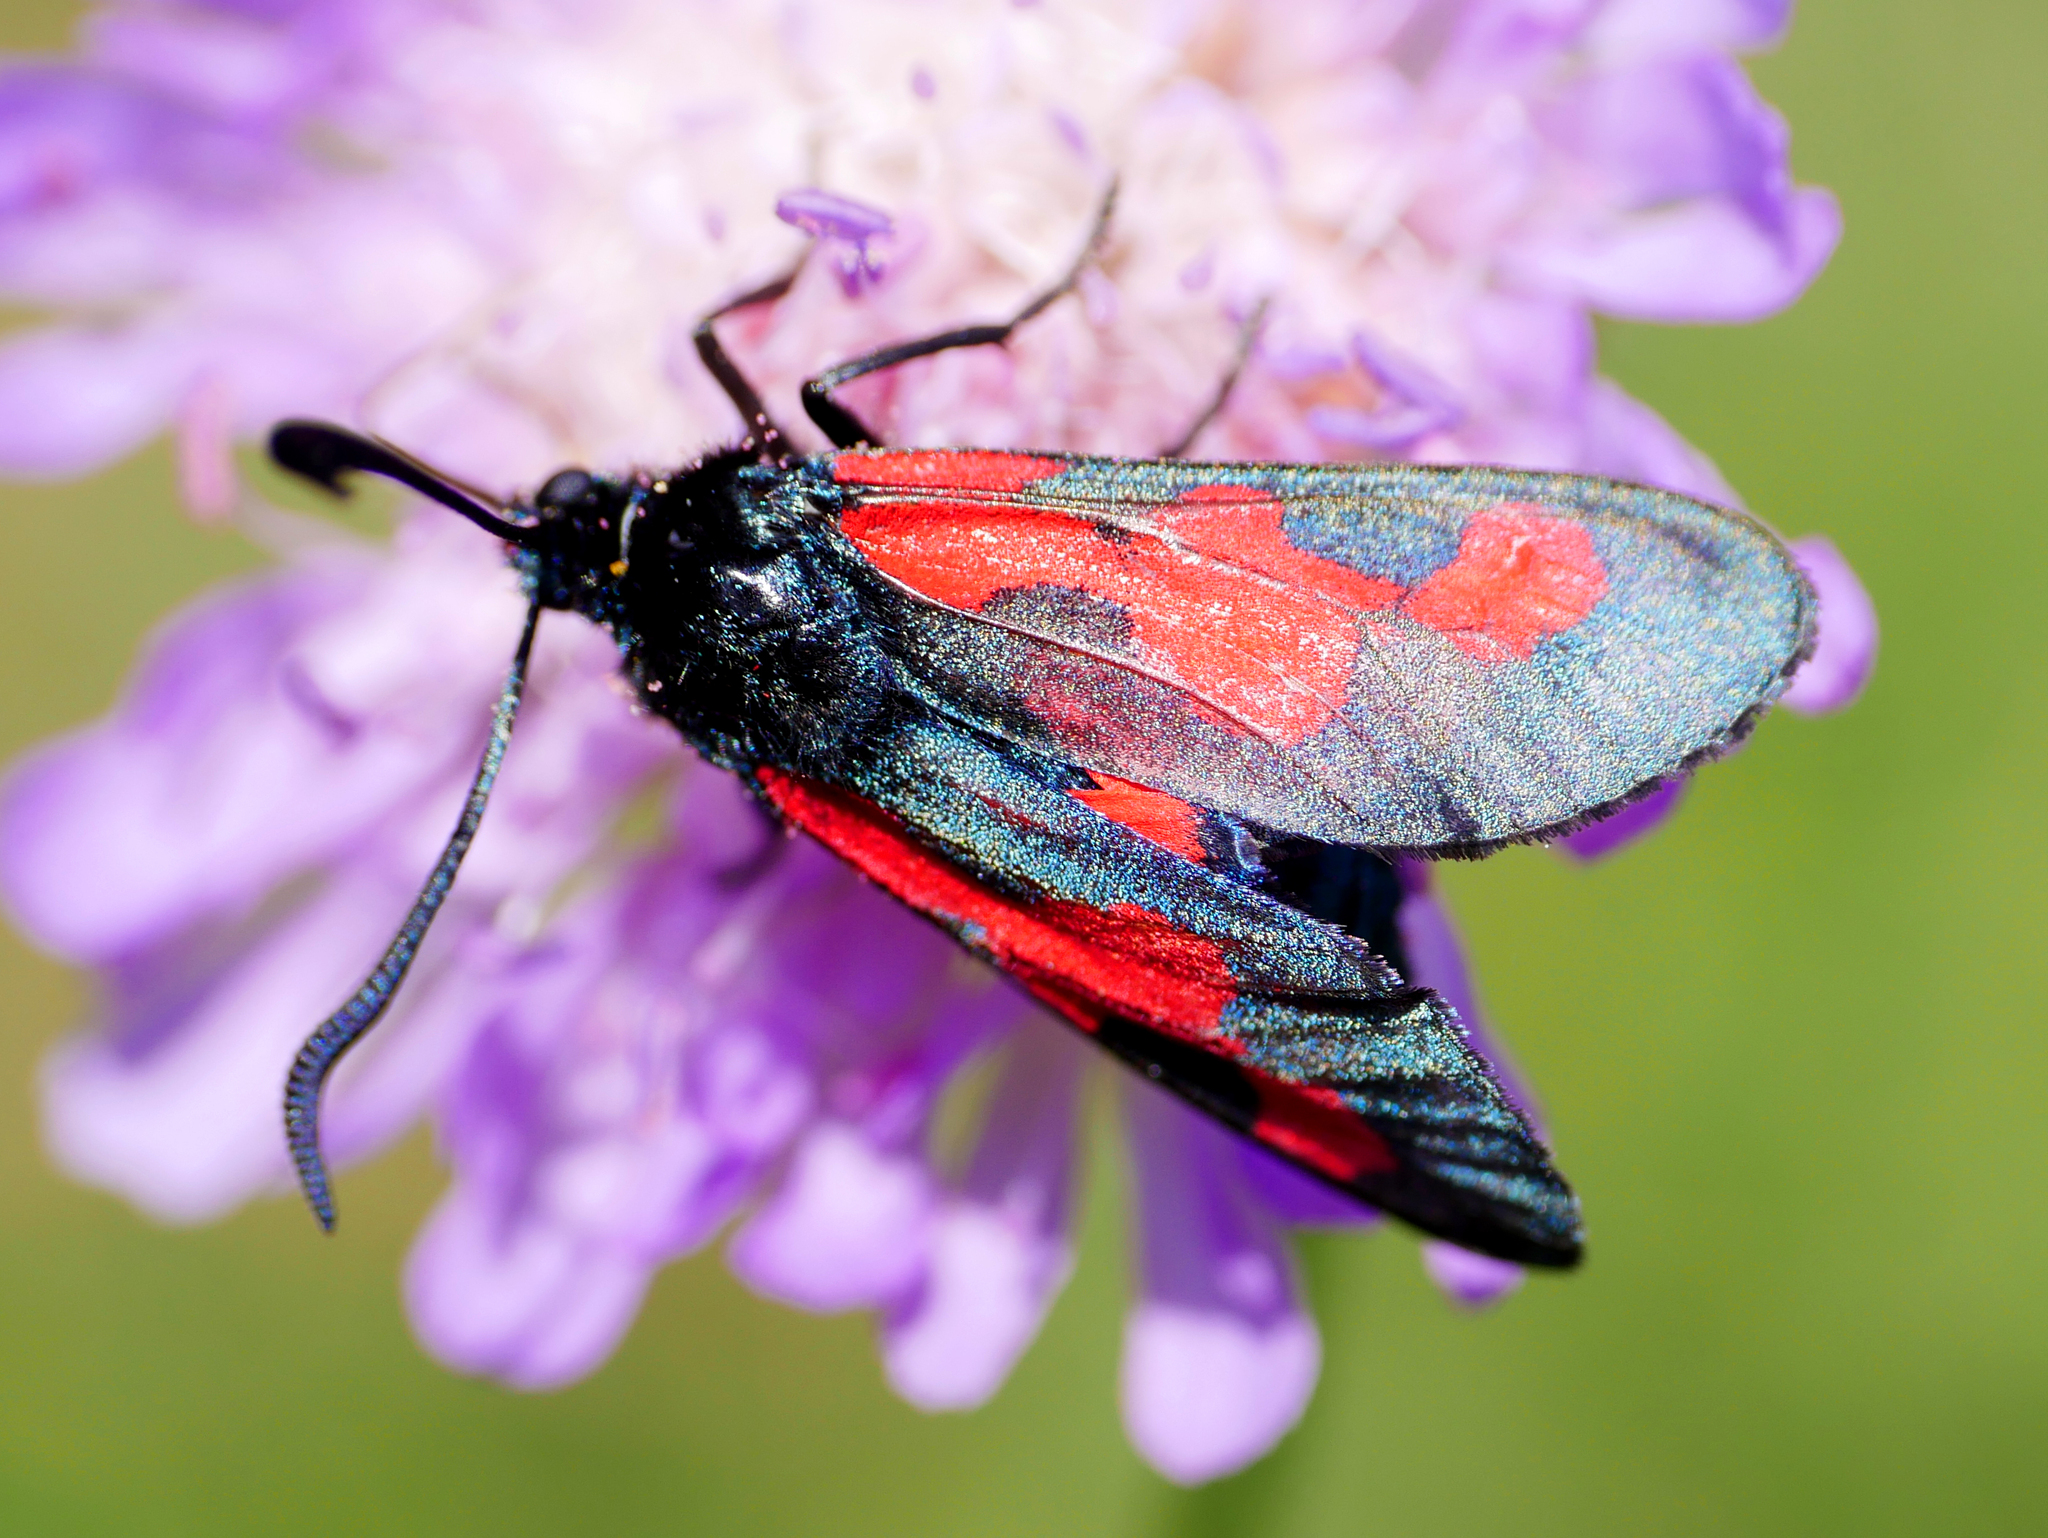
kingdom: Animalia
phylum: Arthropoda
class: Insecta
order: Lepidoptera
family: Zygaenidae
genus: Zygaena
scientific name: Zygaena trifolii
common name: Five-spot burnet
